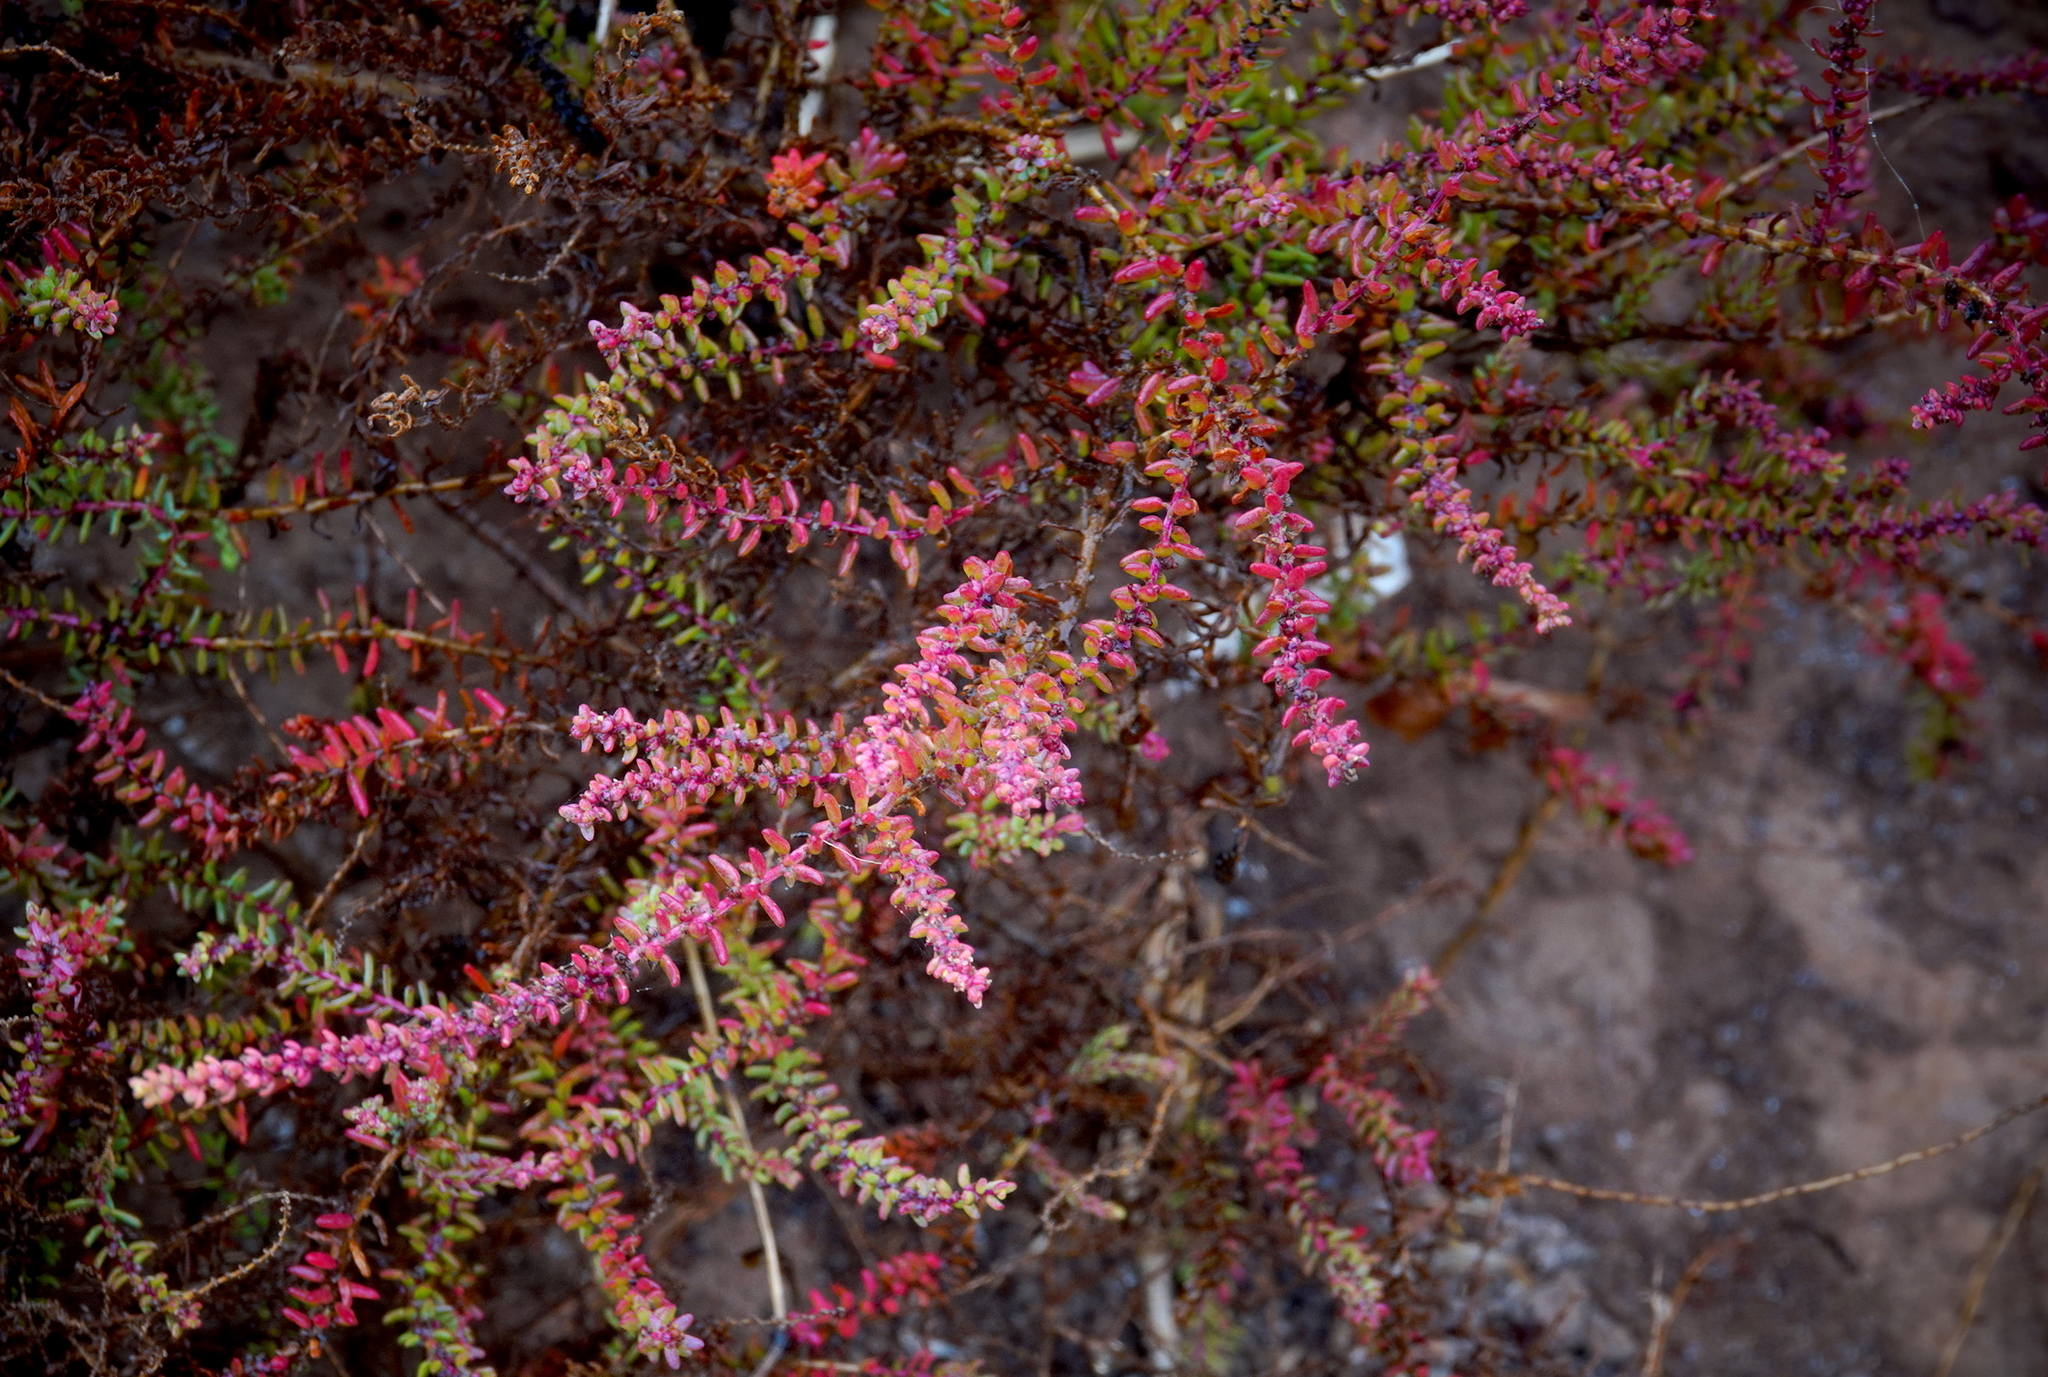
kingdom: Plantae
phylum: Tracheophyta
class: Magnoliopsida
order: Caryophyllales
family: Amaranthaceae
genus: Suaeda
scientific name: Suaeda vera
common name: Shrubby sea-blite
